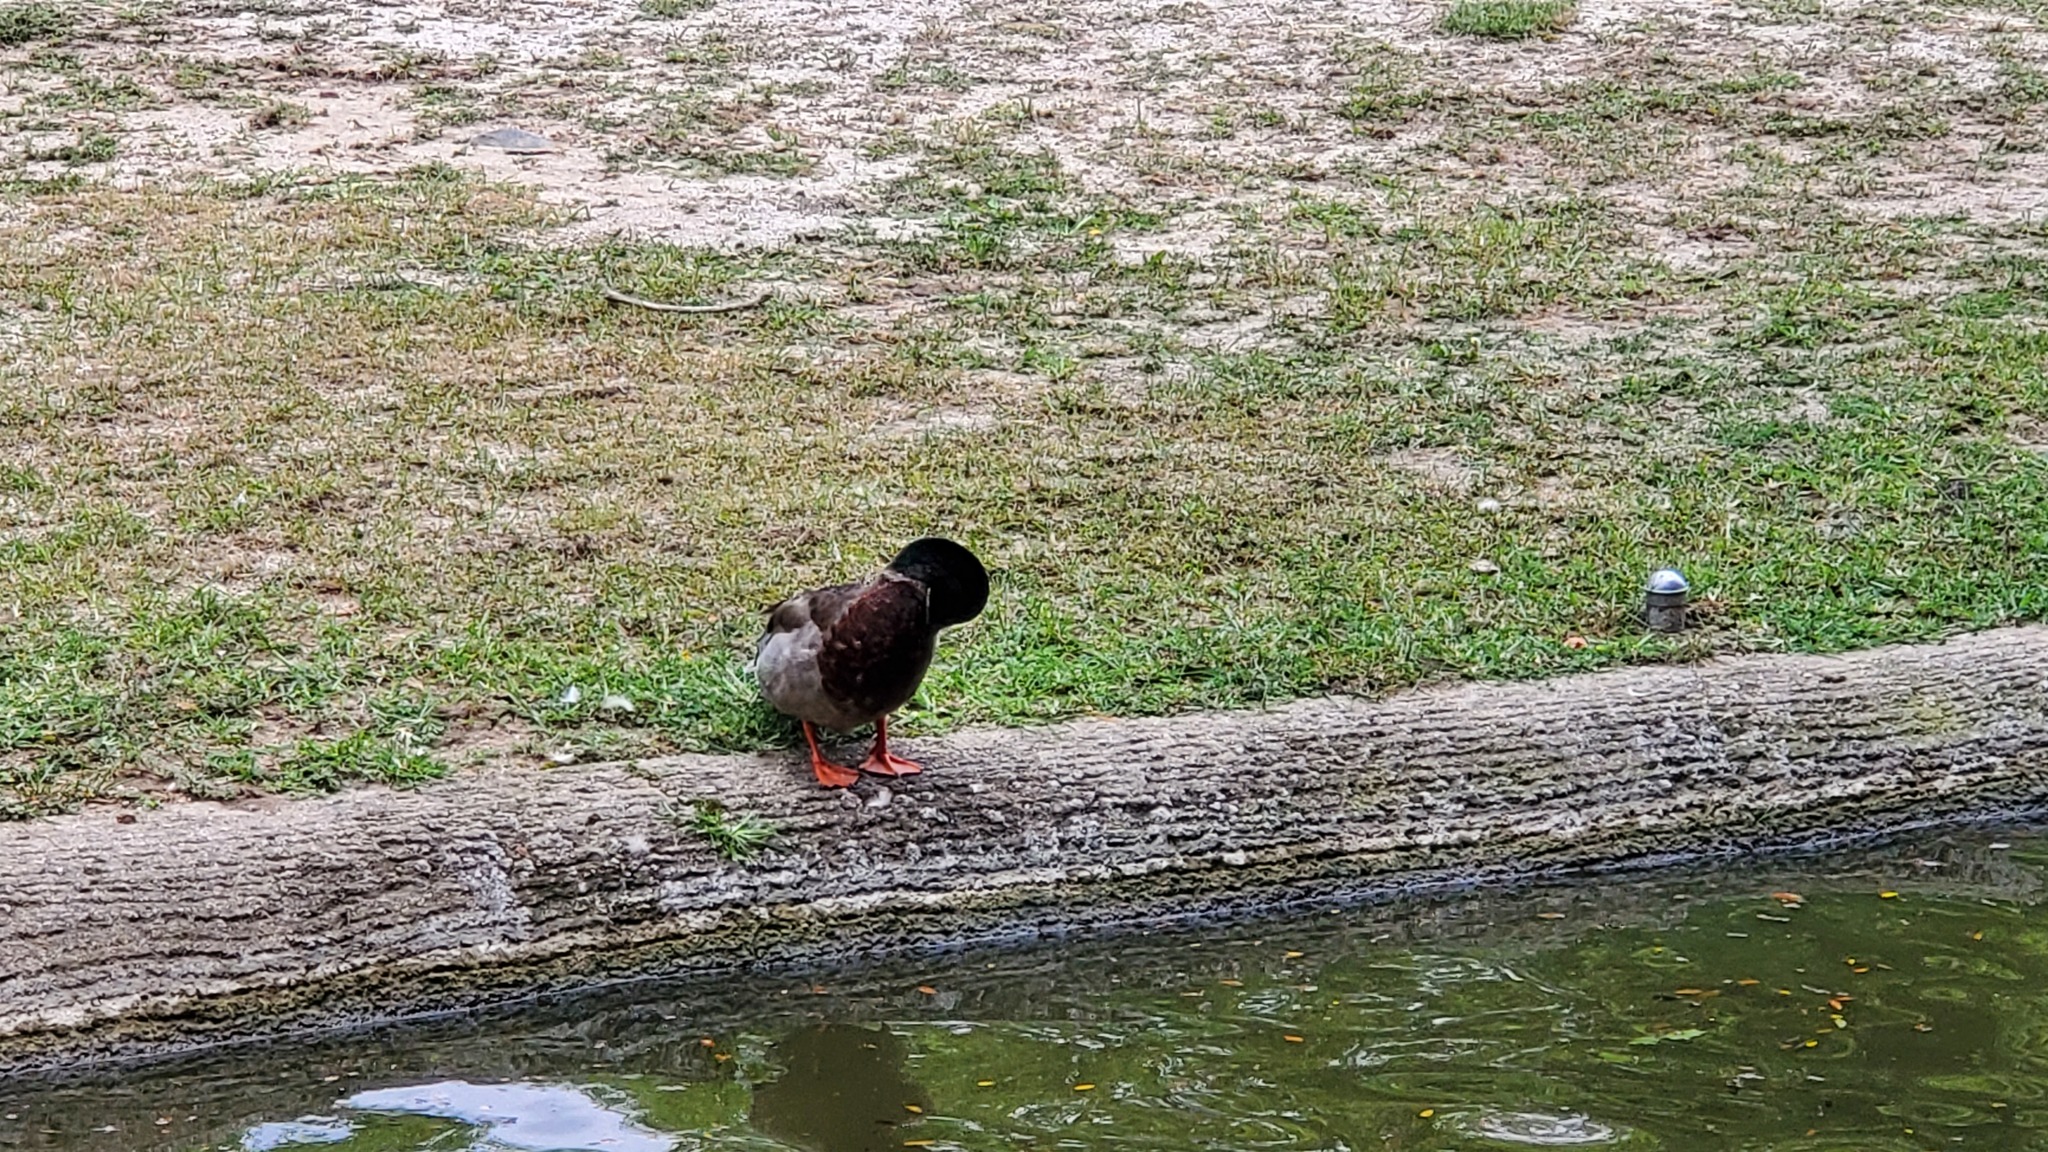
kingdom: Animalia
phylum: Chordata
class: Aves
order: Anseriformes
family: Anatidae
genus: Anas
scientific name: Anas platyrhynchos
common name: Mallard
